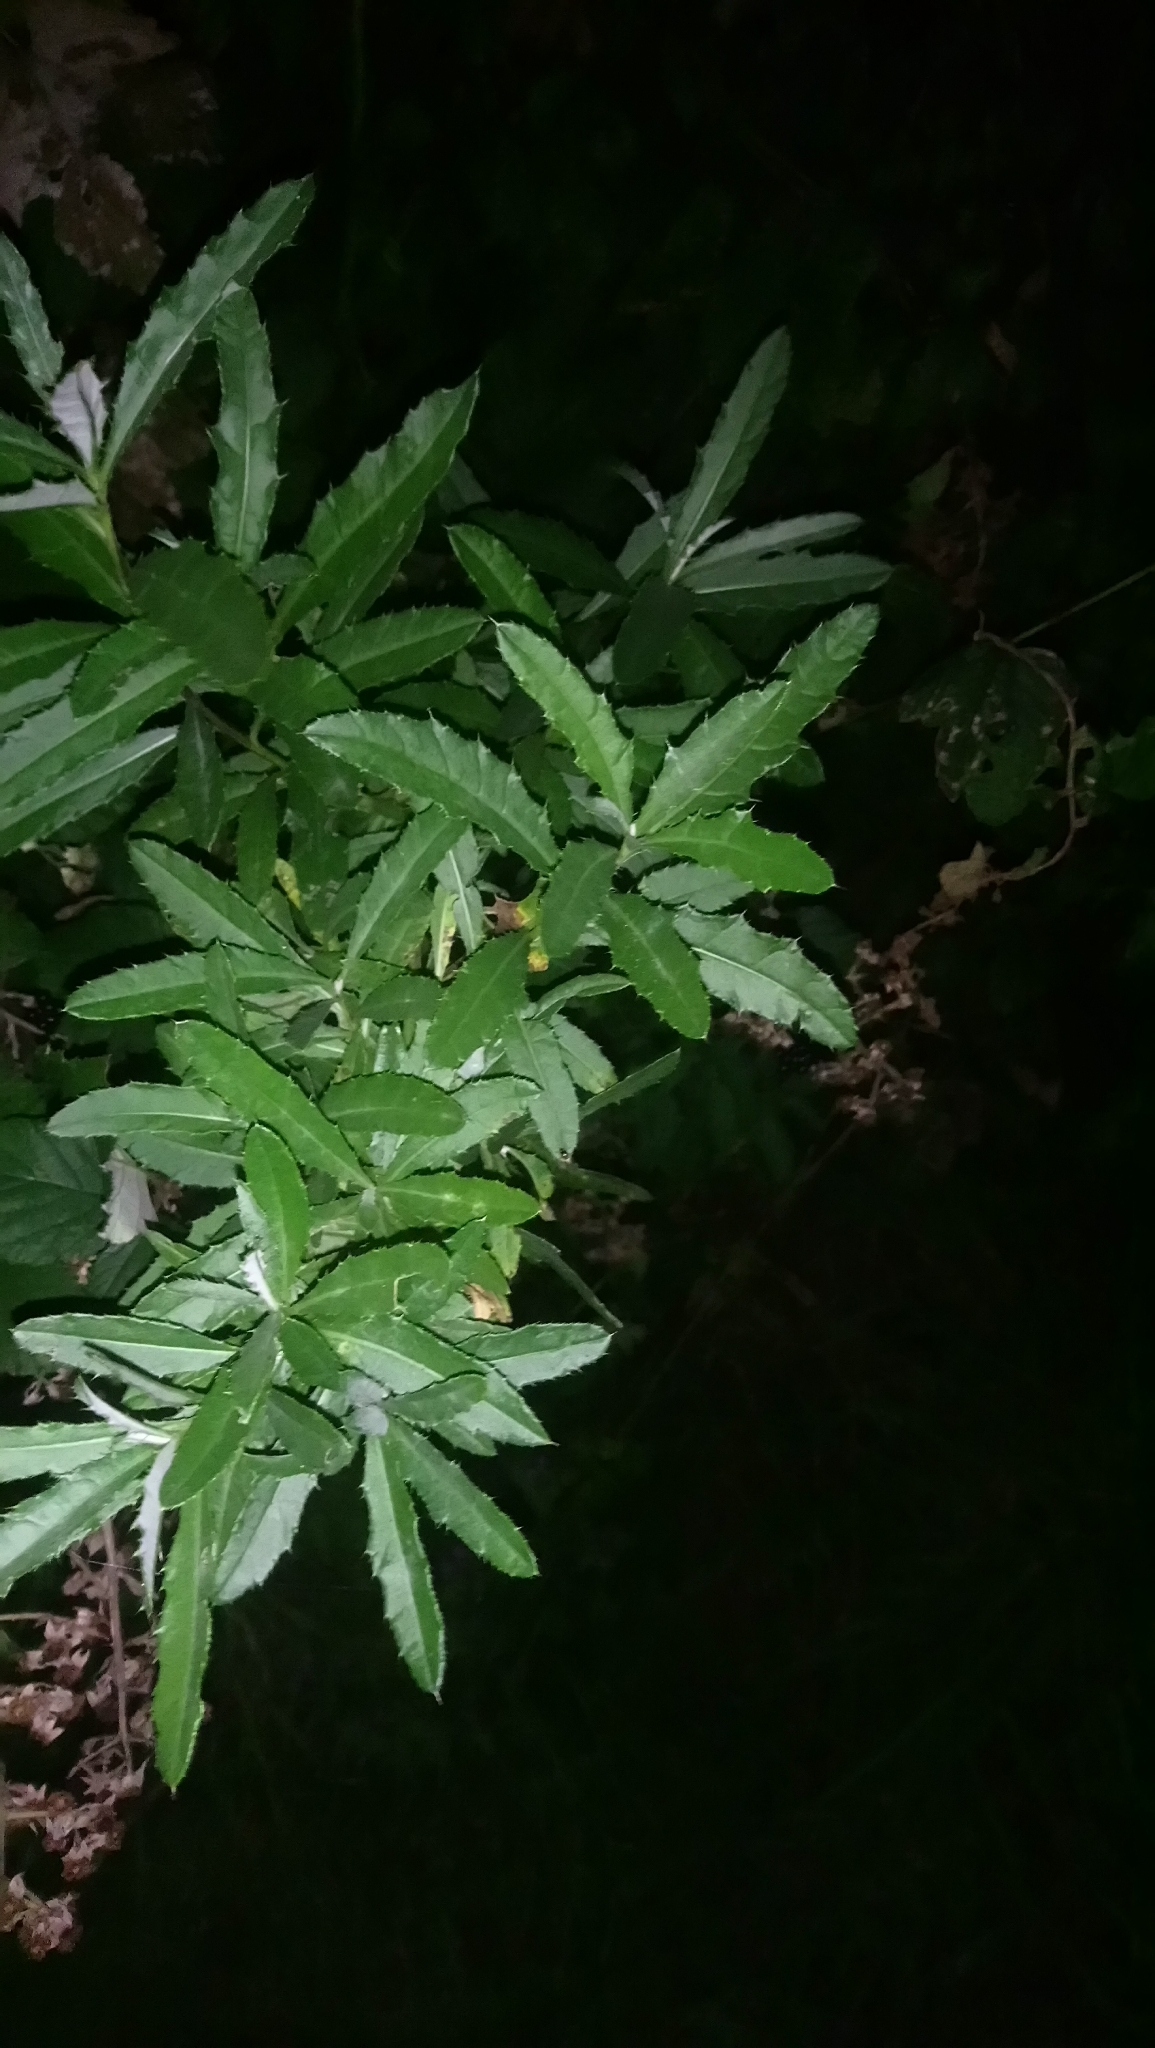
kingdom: Plantae
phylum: Tracheophyta
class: Magnoliopsida
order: Asterales
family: Asteraceae
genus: Cirsium
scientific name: Cirsium arvense
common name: Creeping thistle
